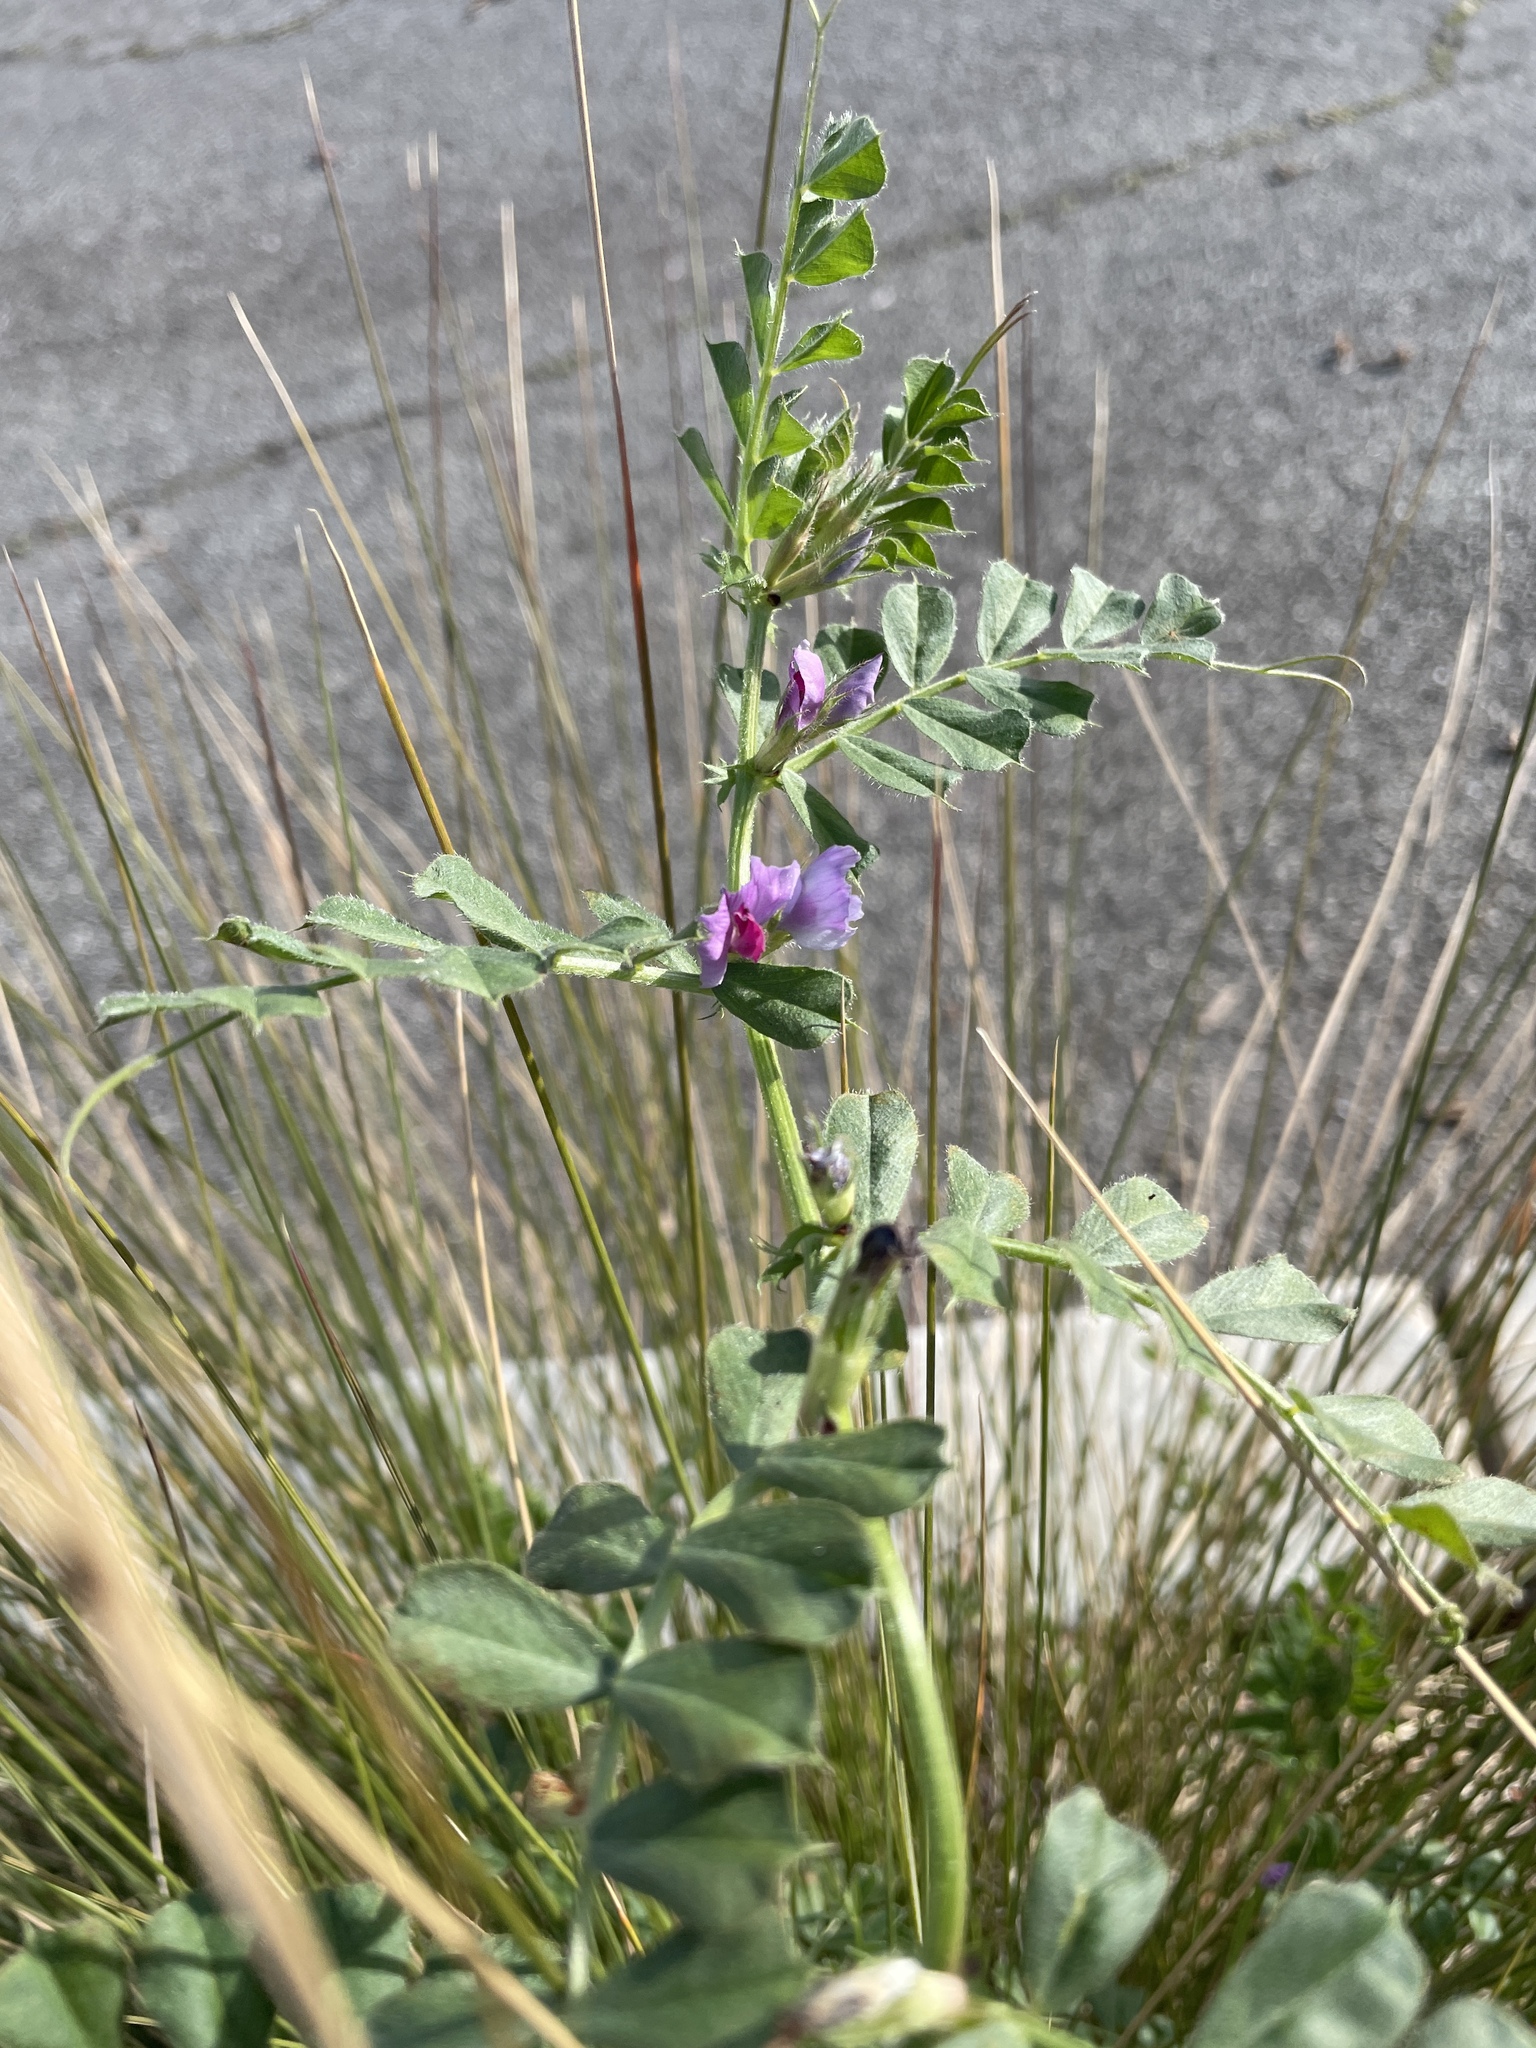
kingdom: Plantae
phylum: Tracheophyta
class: Magnoliopsida
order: Fabales
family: Fabaceae
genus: Vicia
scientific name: Vicia sativa
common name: Garden vetch
